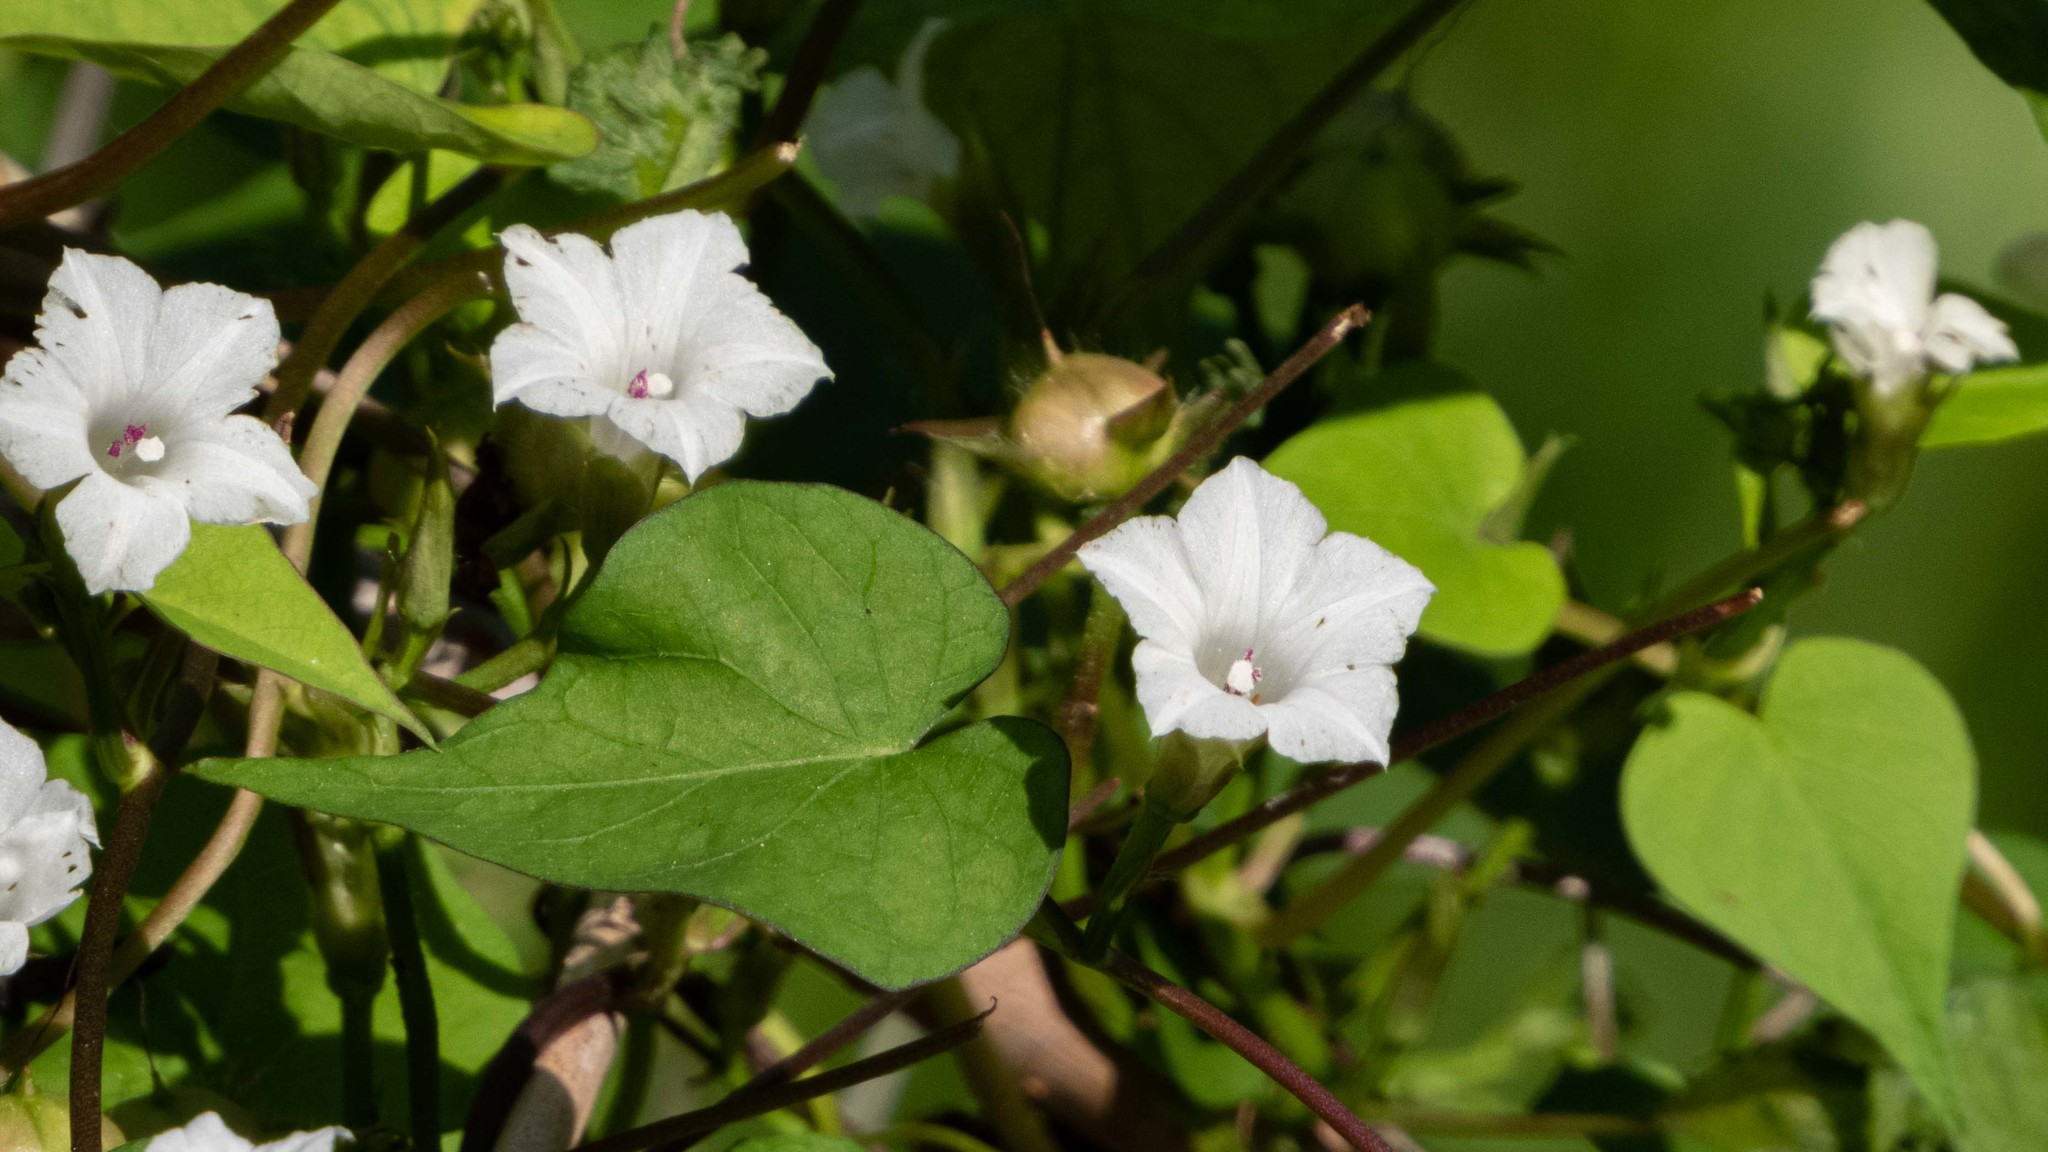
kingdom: Plantae
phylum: Tracheophyta
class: Magnoliopsida
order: Solanales
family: Convolvulaceae
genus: Ipomoea
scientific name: Ipomoea lacunosa
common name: White morning-glory
